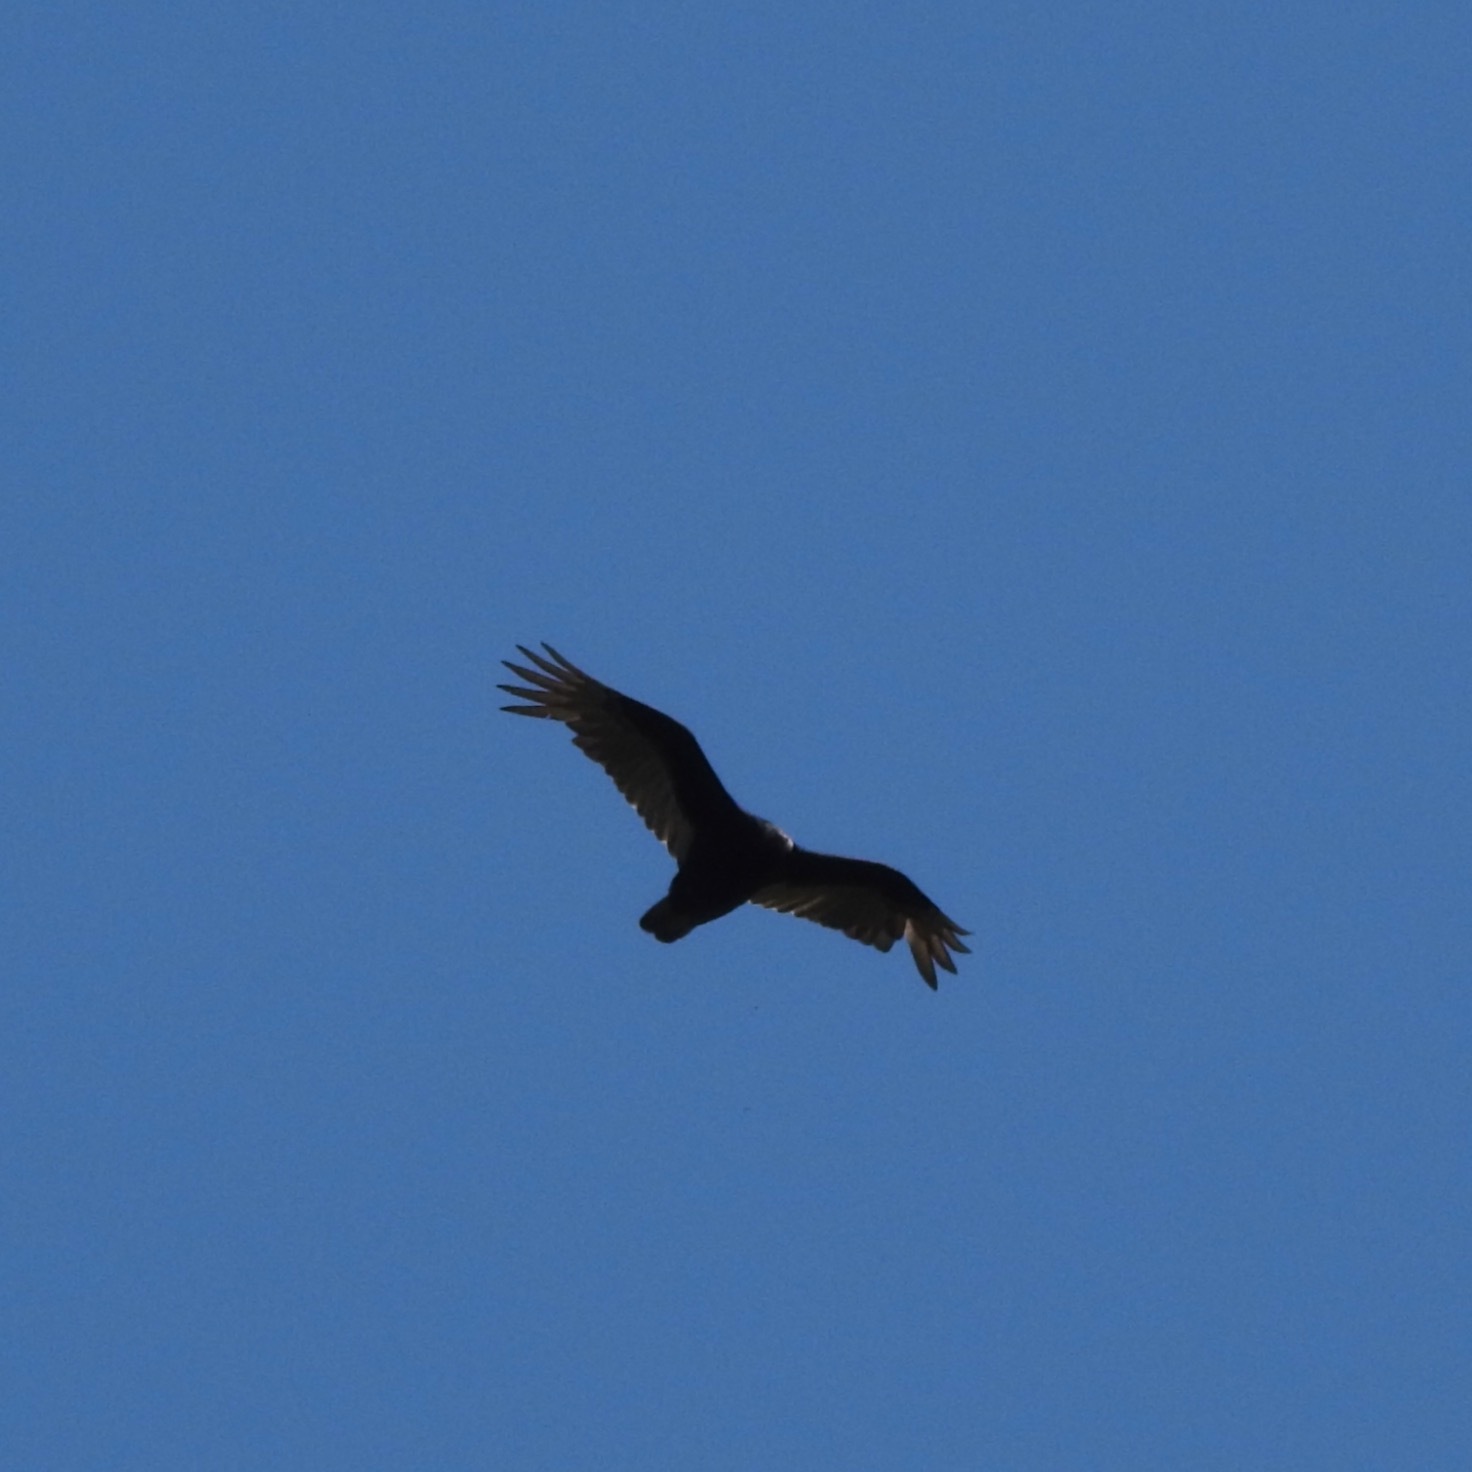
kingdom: Animalia
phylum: Chordata
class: Aves
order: Accipitriformes
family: Cathartidae
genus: Cathartes
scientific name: Cathartes aura
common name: Turkey vulture
